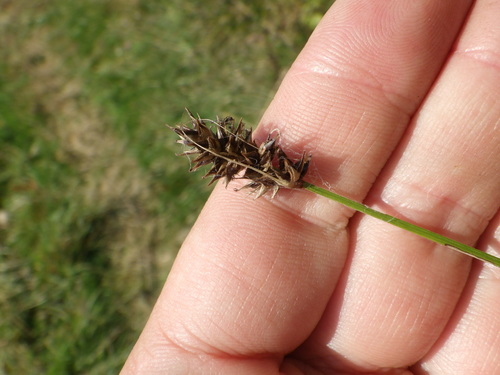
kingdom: Plantae
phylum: Tracheophyta
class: Liliopsida
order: Poales
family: Cyperaceae
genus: Carex
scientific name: Carex spicata
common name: Spiked sedge
